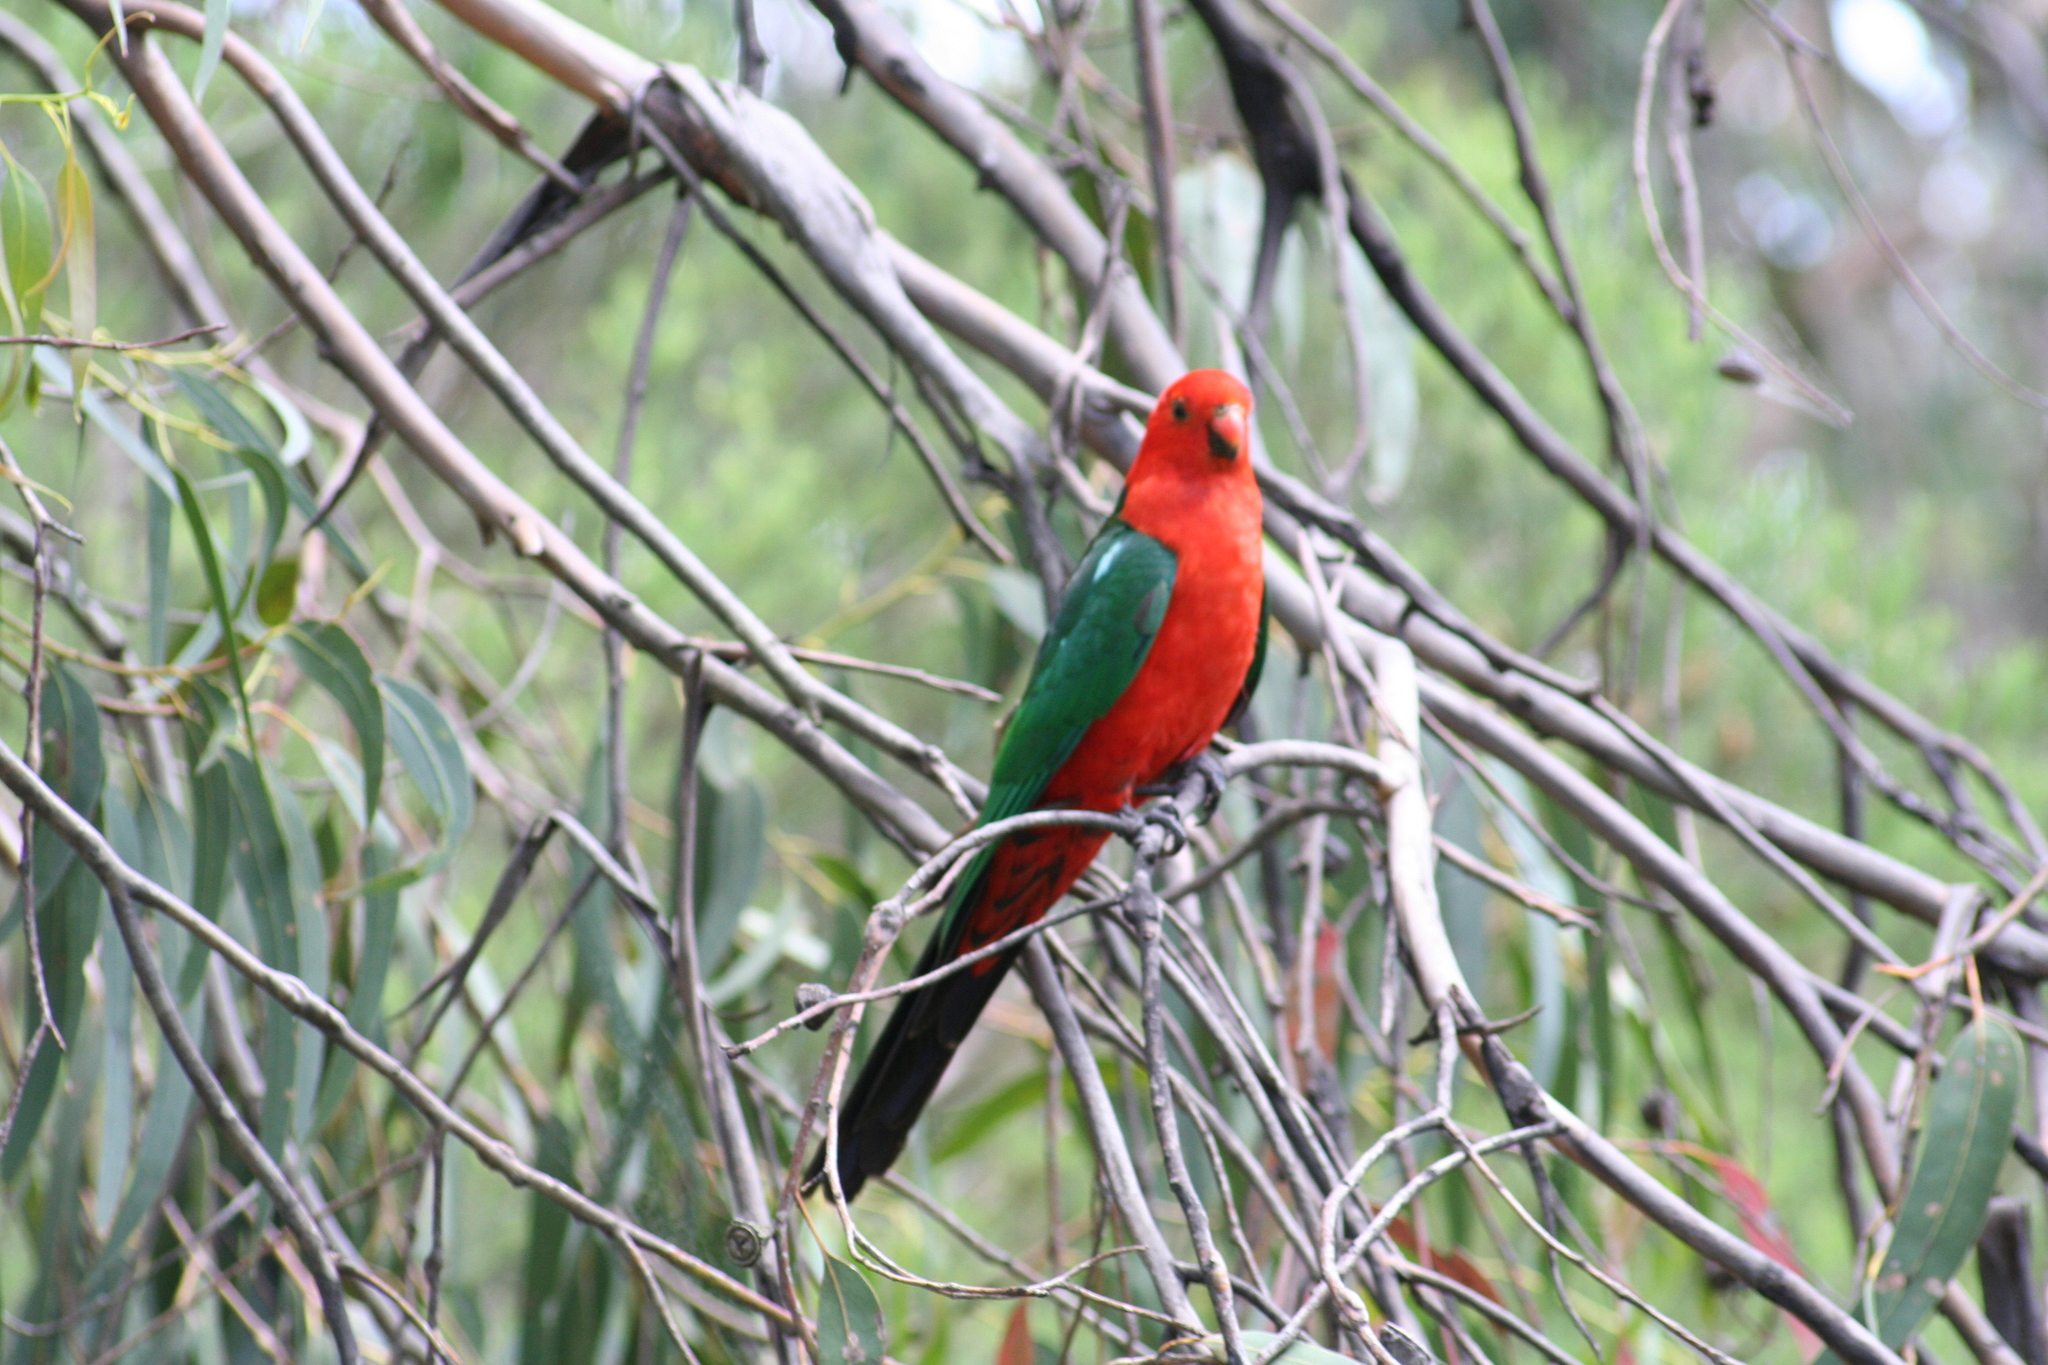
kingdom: Animalia
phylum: Chordata
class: Aves
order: Psittaciformes
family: Psittacidae
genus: Alisterus
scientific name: Alisterus scapularis
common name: Australian king parrot
